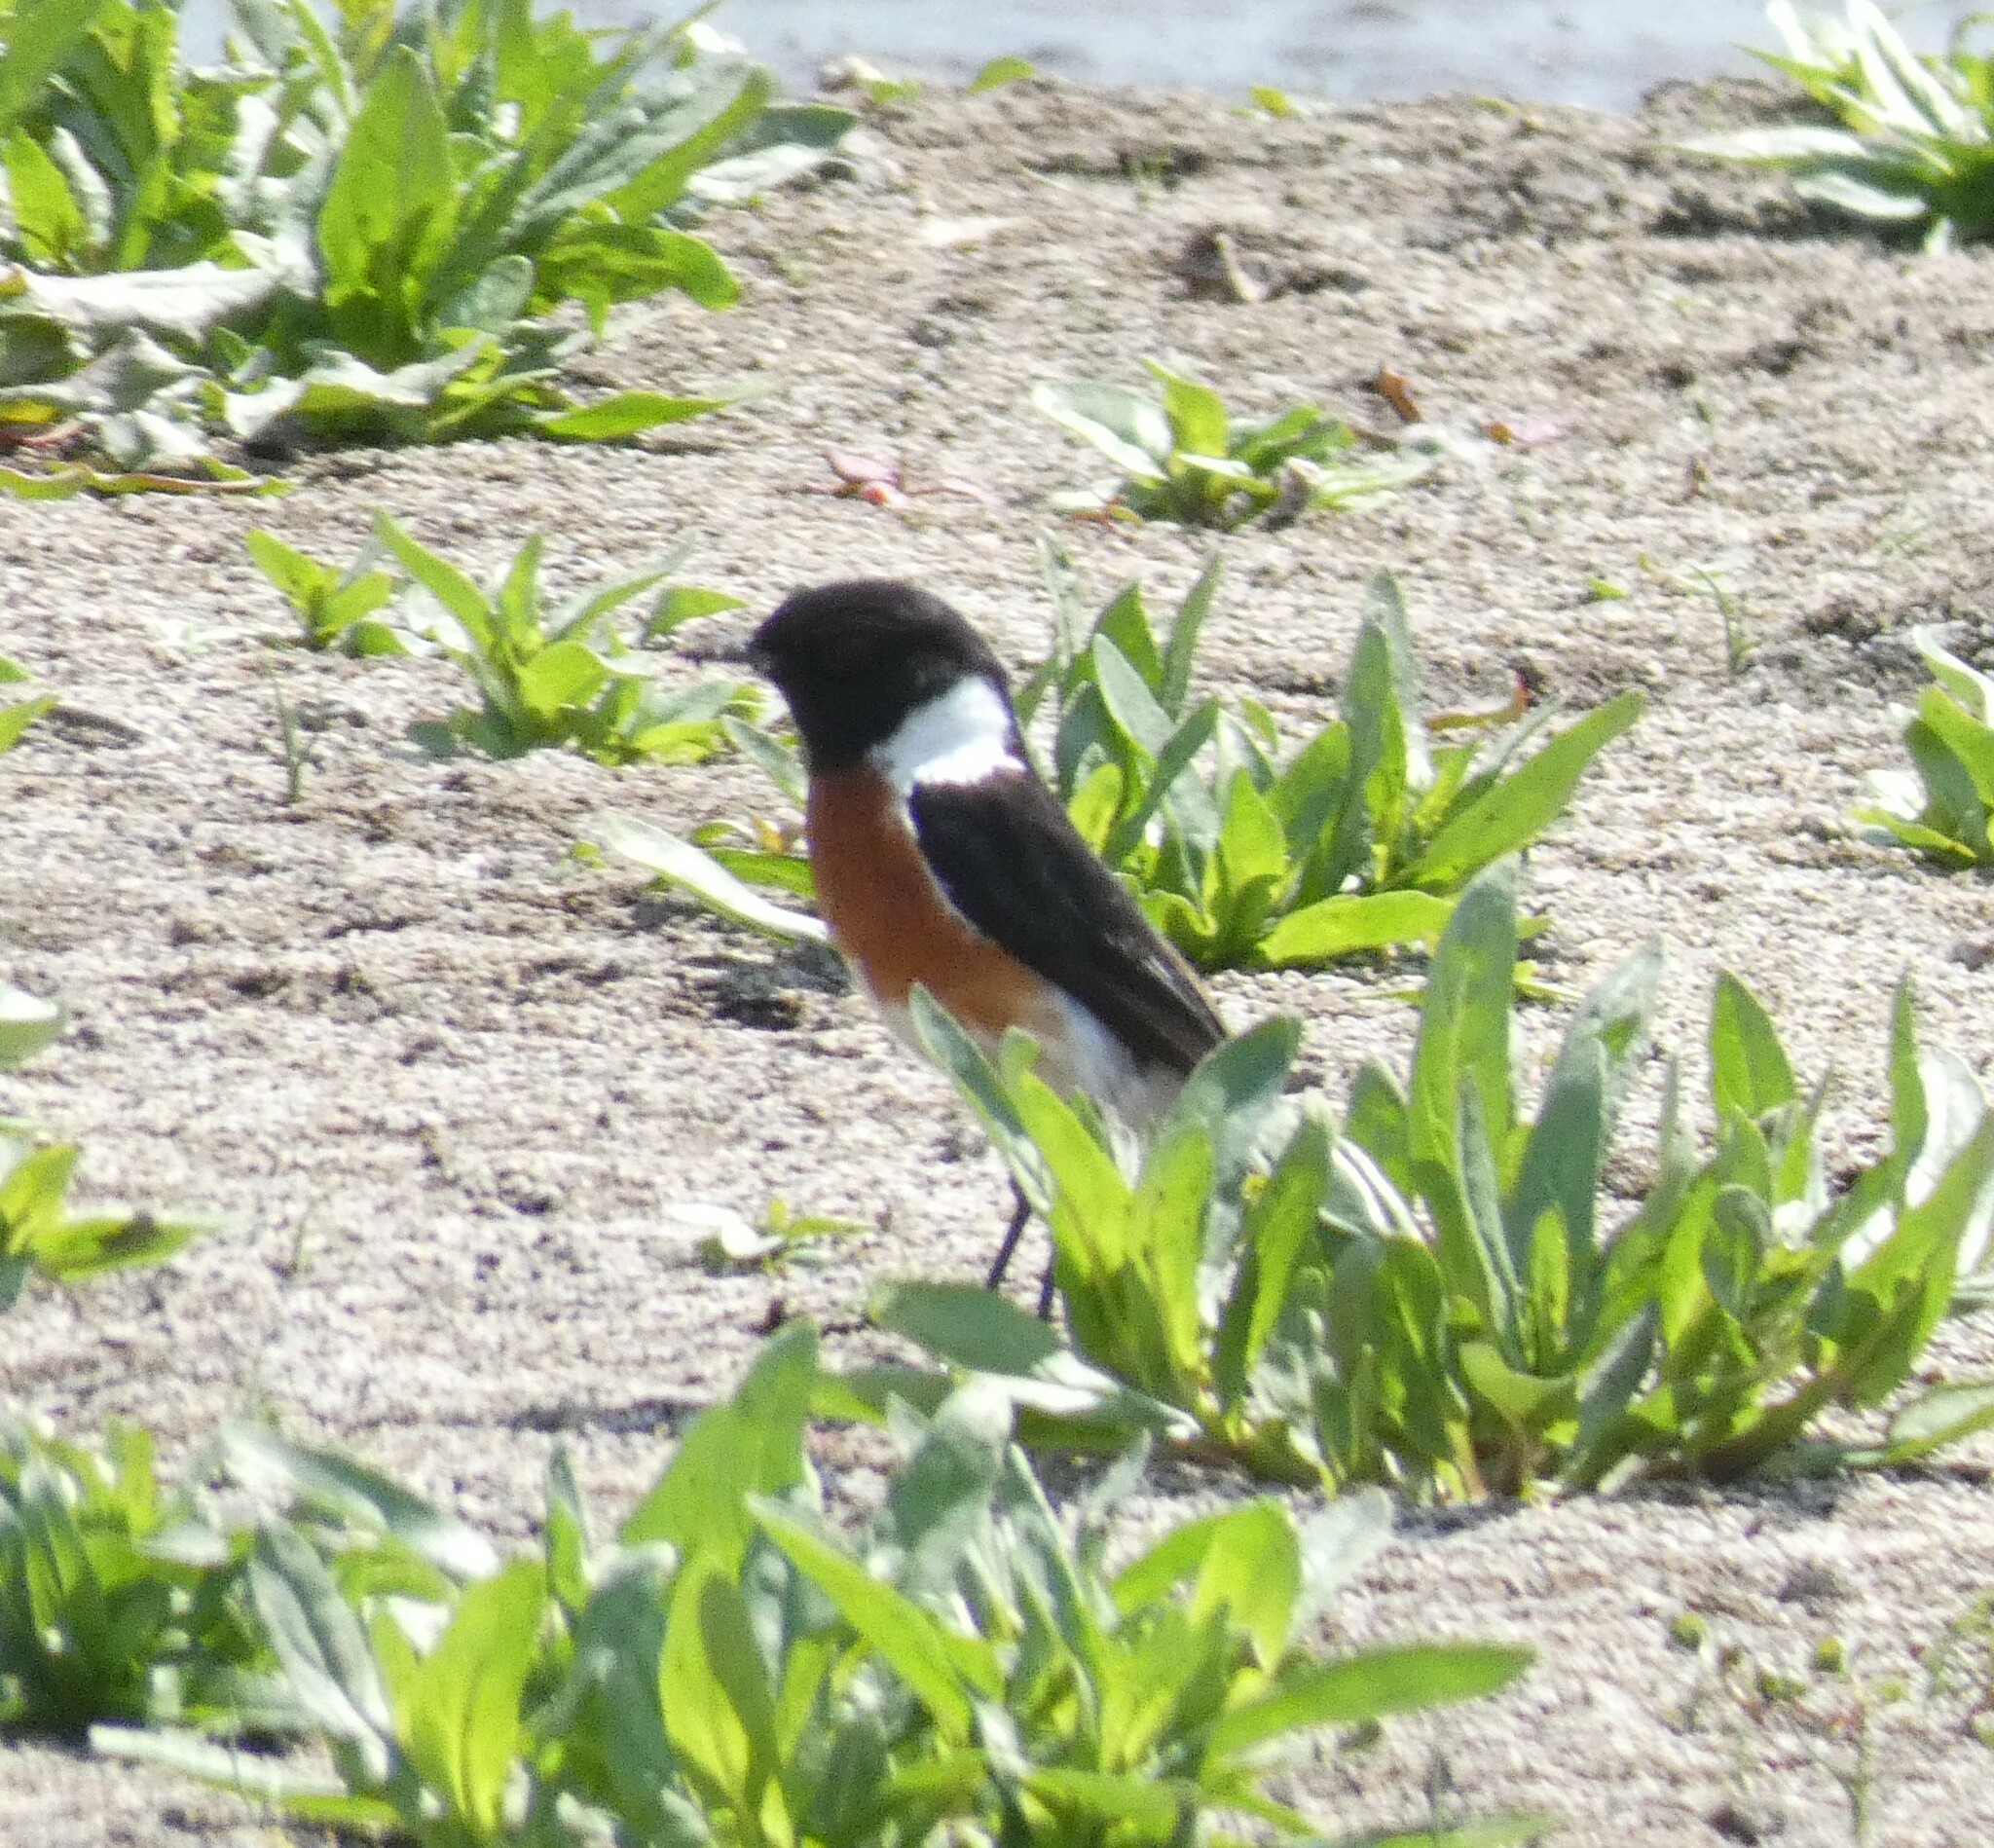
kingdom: Animalia
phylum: Chordata
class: Aves
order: Passeriformes
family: Muscicapidae
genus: Saxicola
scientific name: Saxicola torquatus
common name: African stonechat
